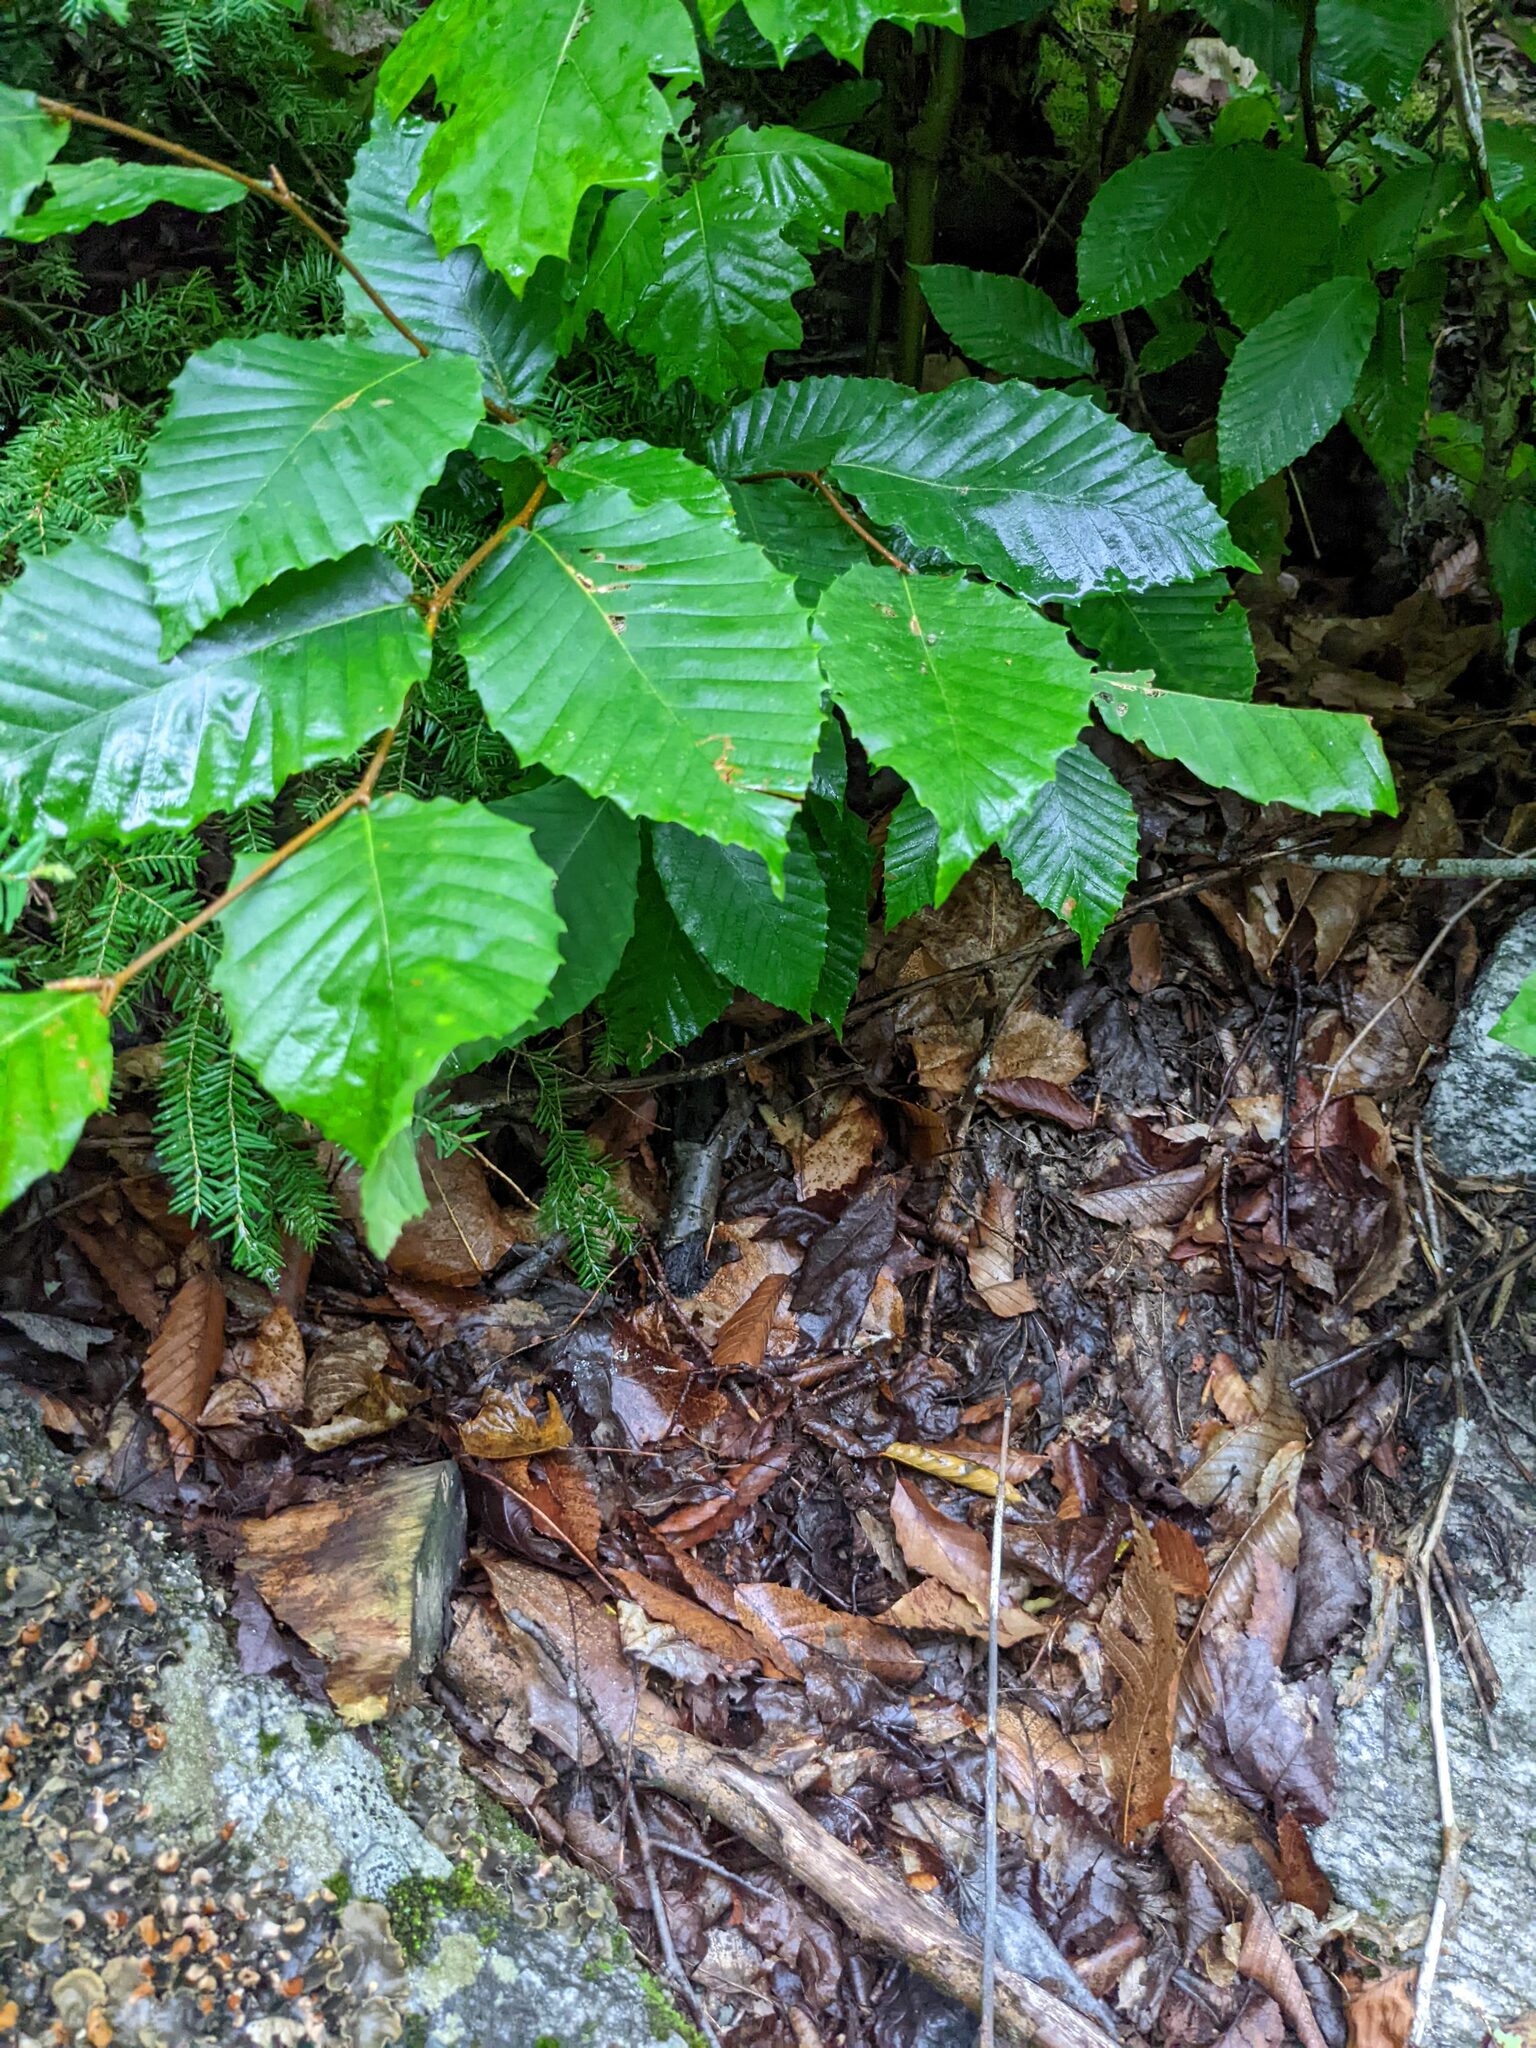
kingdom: Plantae
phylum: Tracheophyta
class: Magnoliopsida
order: Fagales
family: Fagaceae
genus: Fagus
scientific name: Fagus grandifolia
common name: American beech
